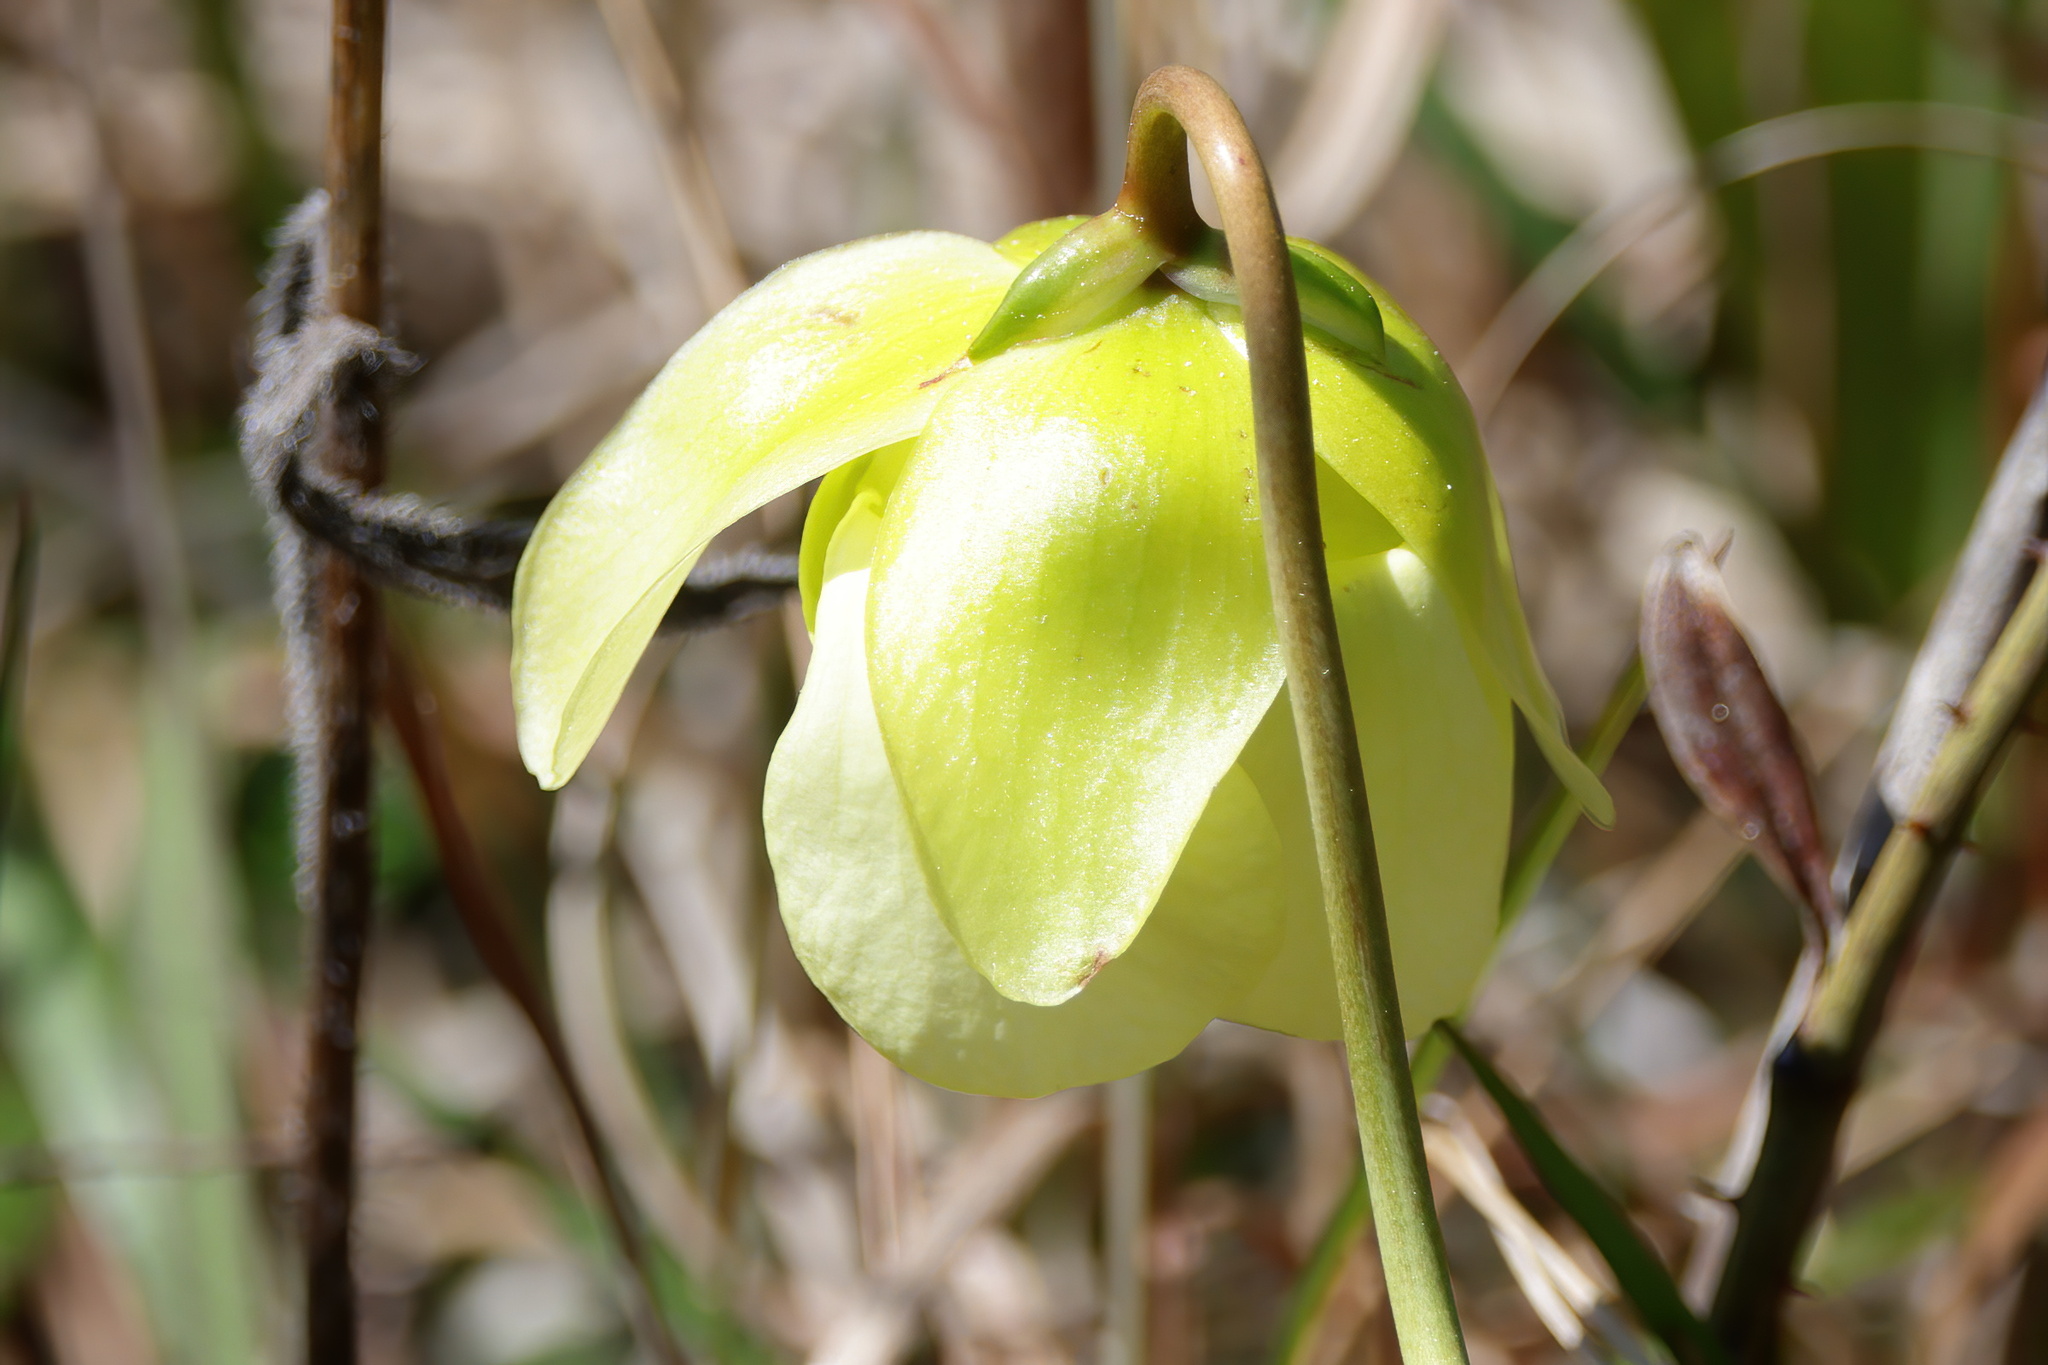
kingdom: Plantae
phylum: Tracheophyta
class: Magnoliopsida
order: Ericales
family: Sarraceniaceae
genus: Sarracenia
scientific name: Sarracenia alata
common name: Yellow trumpets
